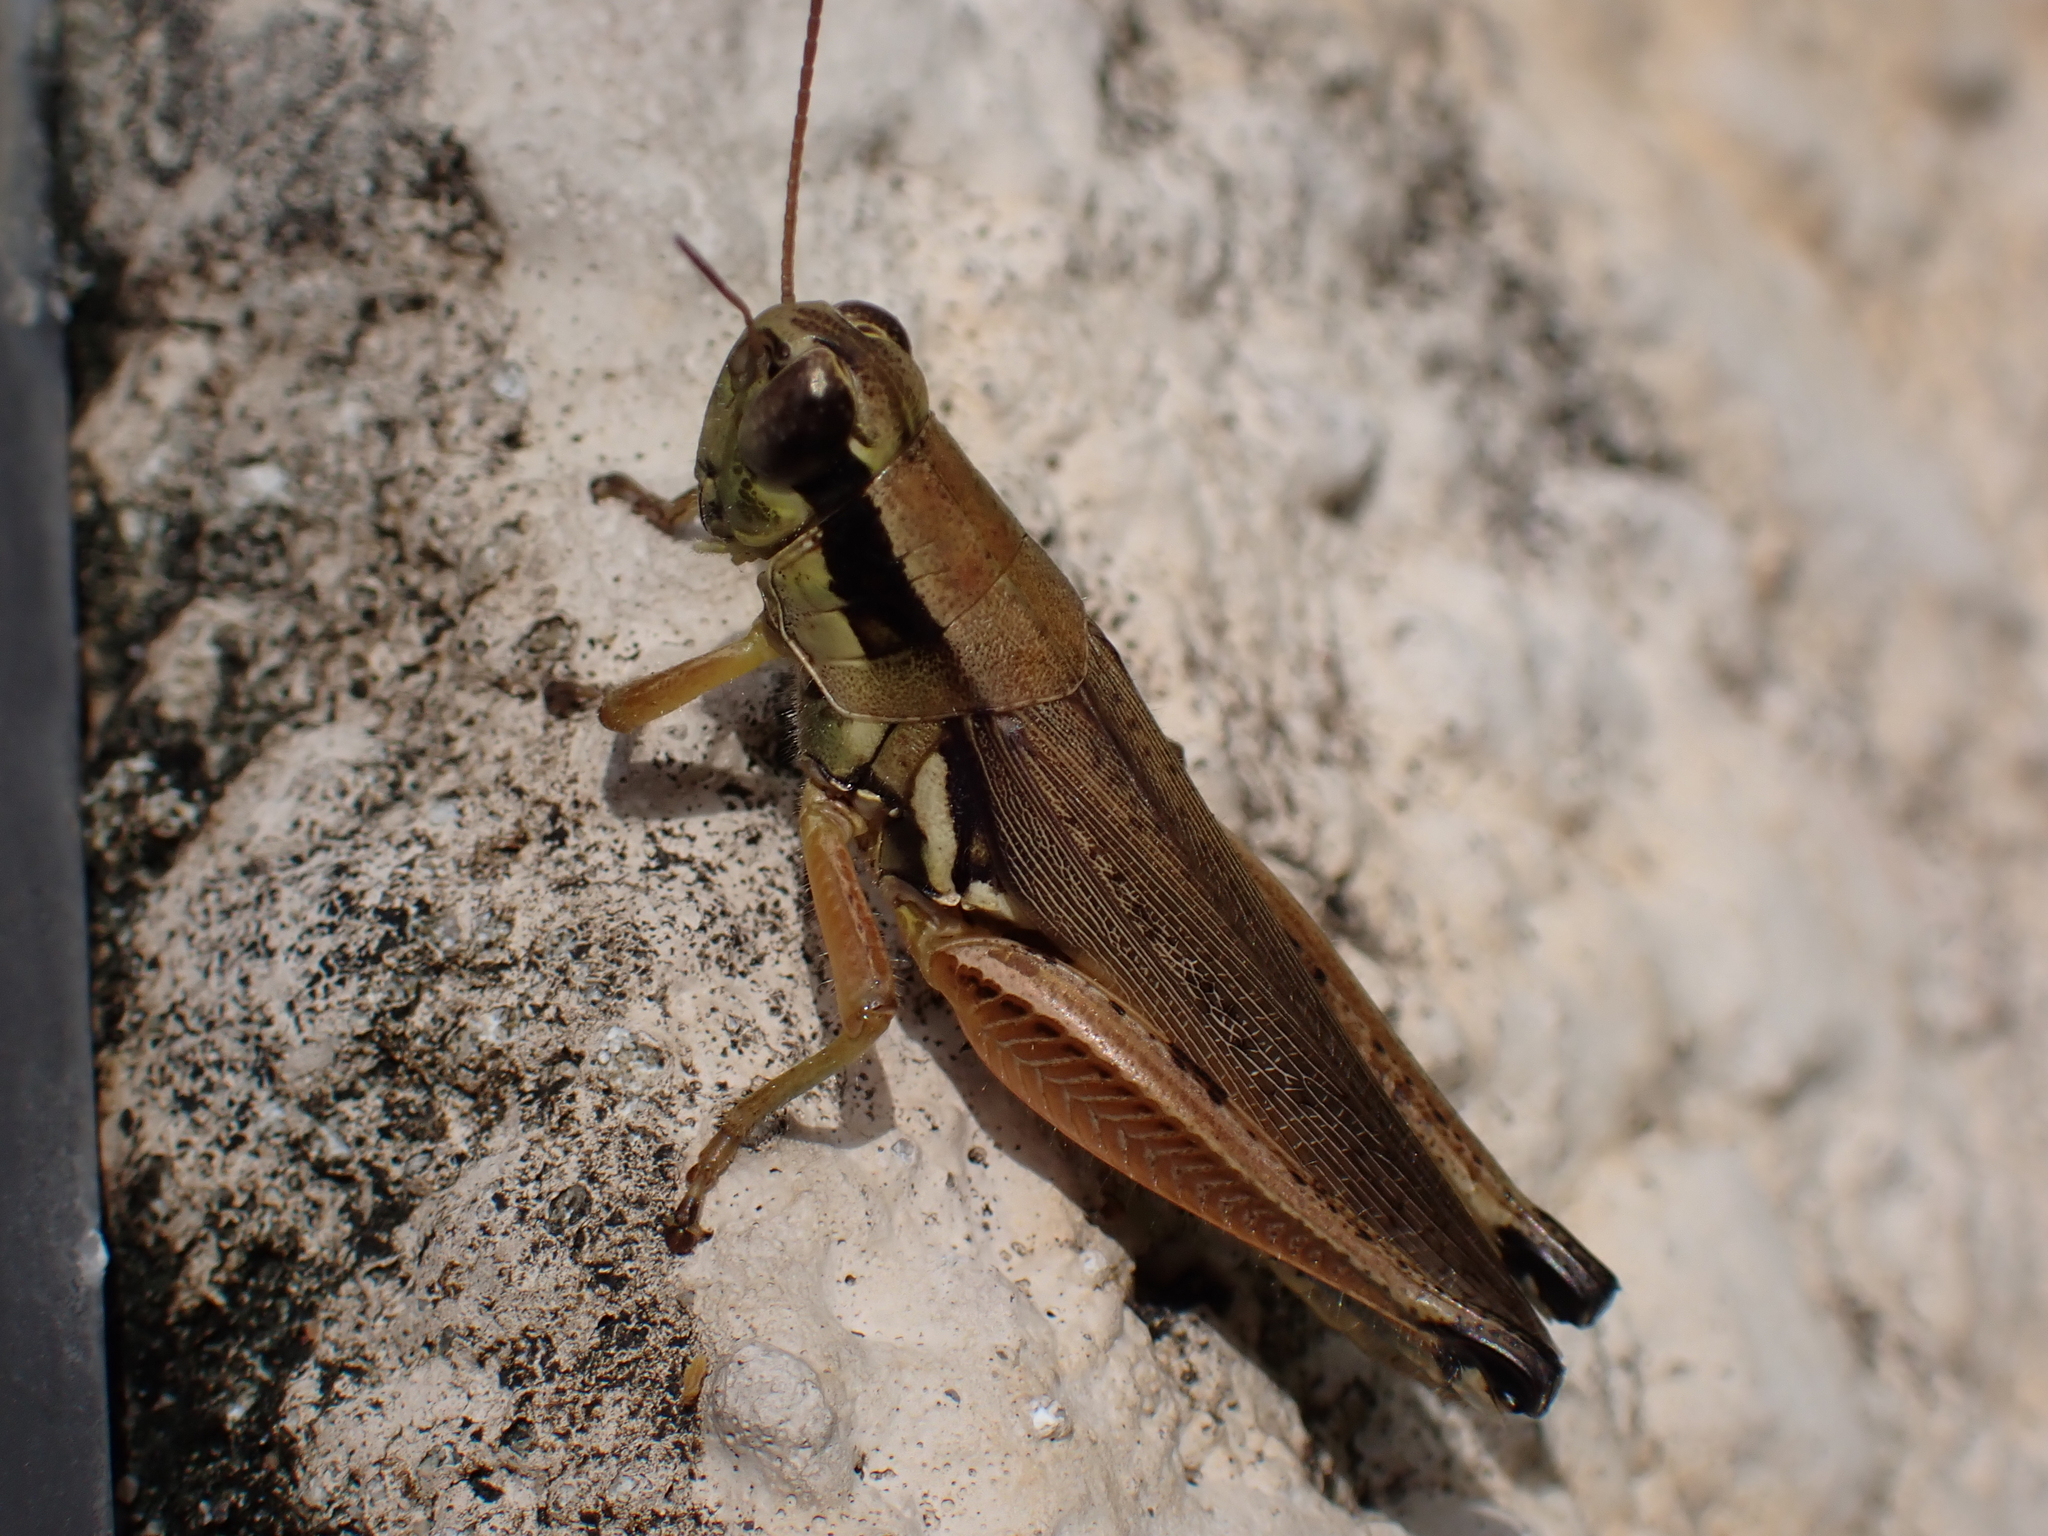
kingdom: Animalia
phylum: Arthropoda
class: Insecta
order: Orthoptera
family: Acrididae
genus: Paroxya
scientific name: Paroxya atlantica
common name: Atlantic grasshopper
